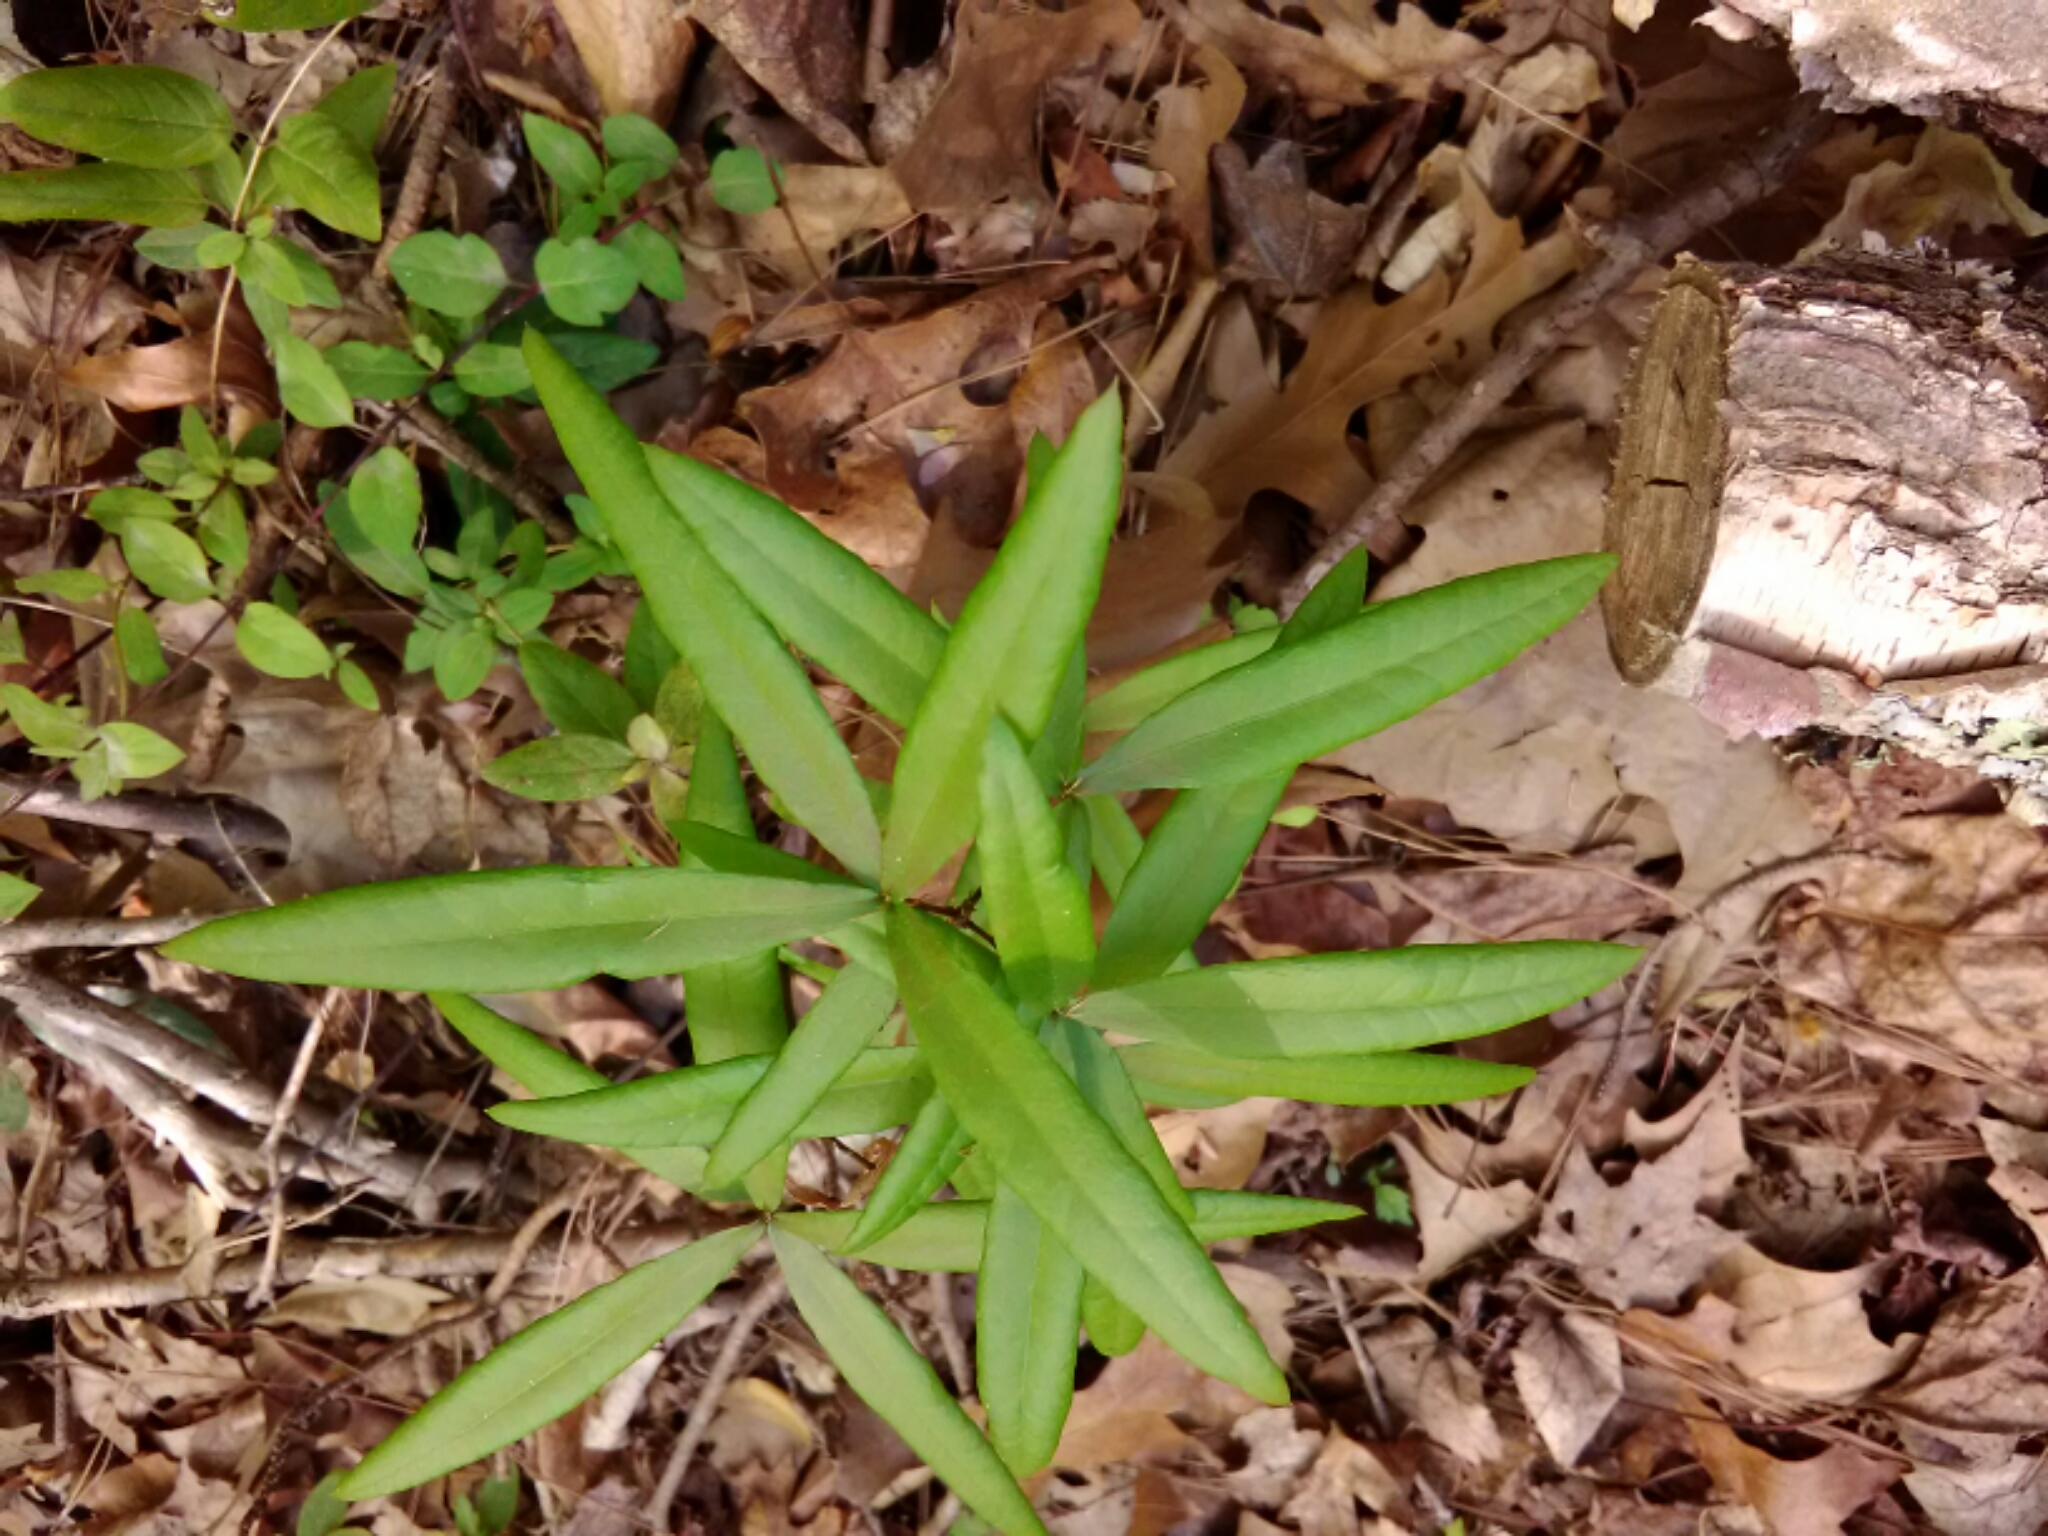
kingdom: Plantae
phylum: Tracheophyta
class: Magnoliopsida
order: Fagales
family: Fagaceae
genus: Quercus
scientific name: Quercus phellos
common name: Willow oak
